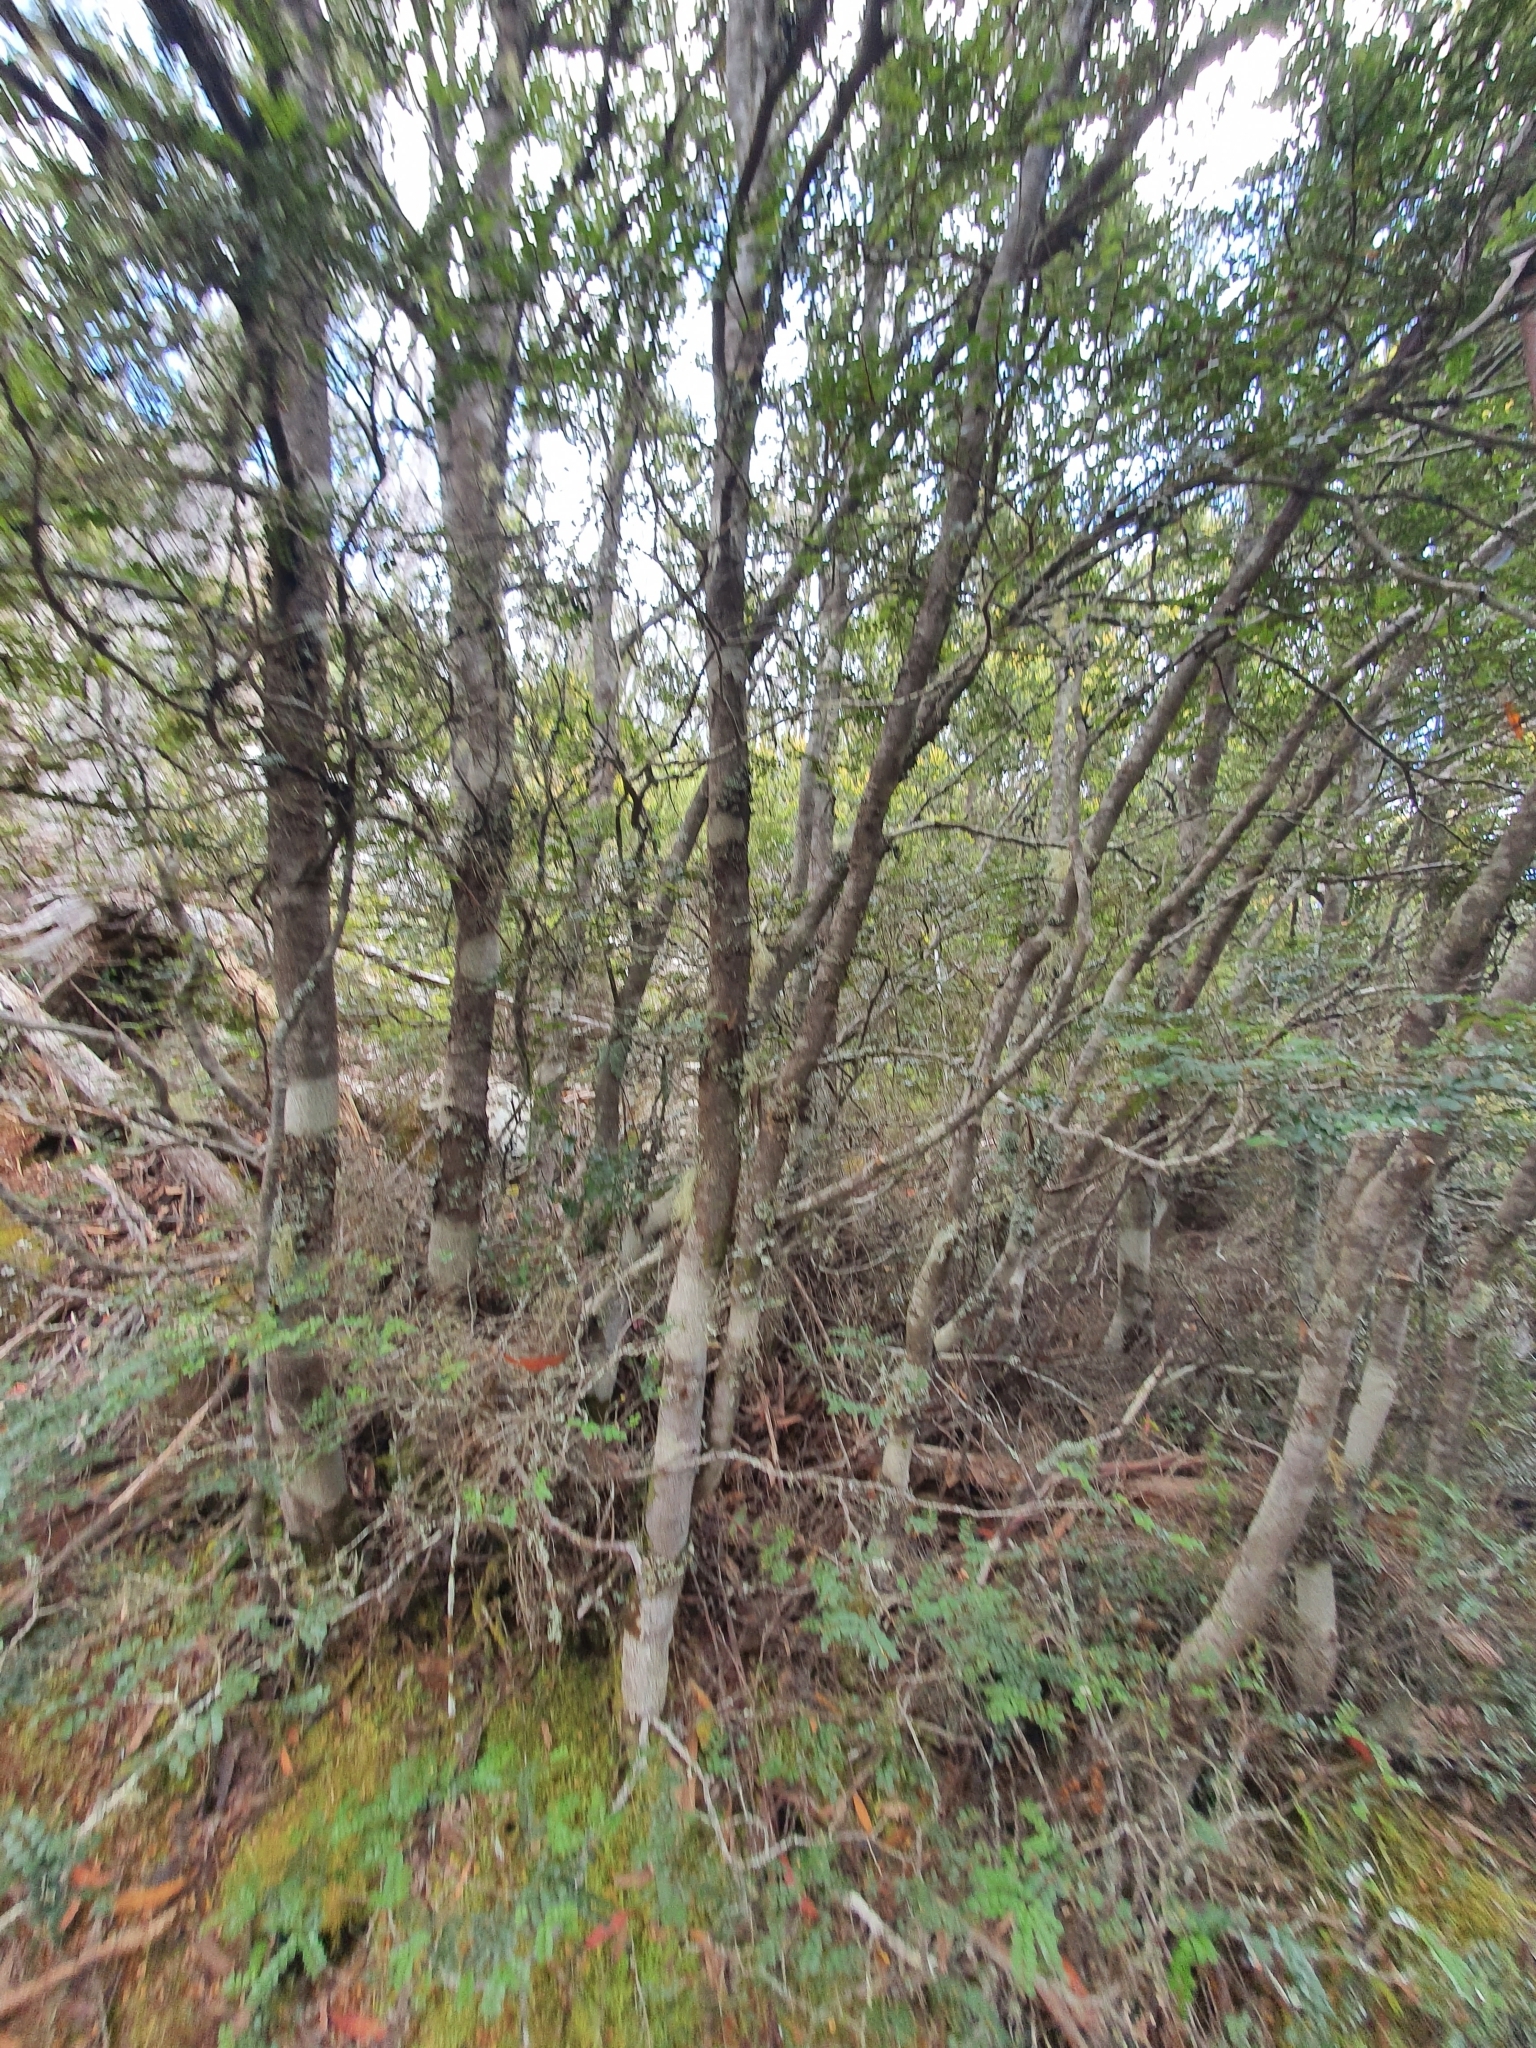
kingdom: Plantae
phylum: Tracheophyta
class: Magnoliopsida
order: Fagales
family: Nothofagaceae
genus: Nothofagus
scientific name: Nothofagus cunninghamii
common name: Myrtle beech
